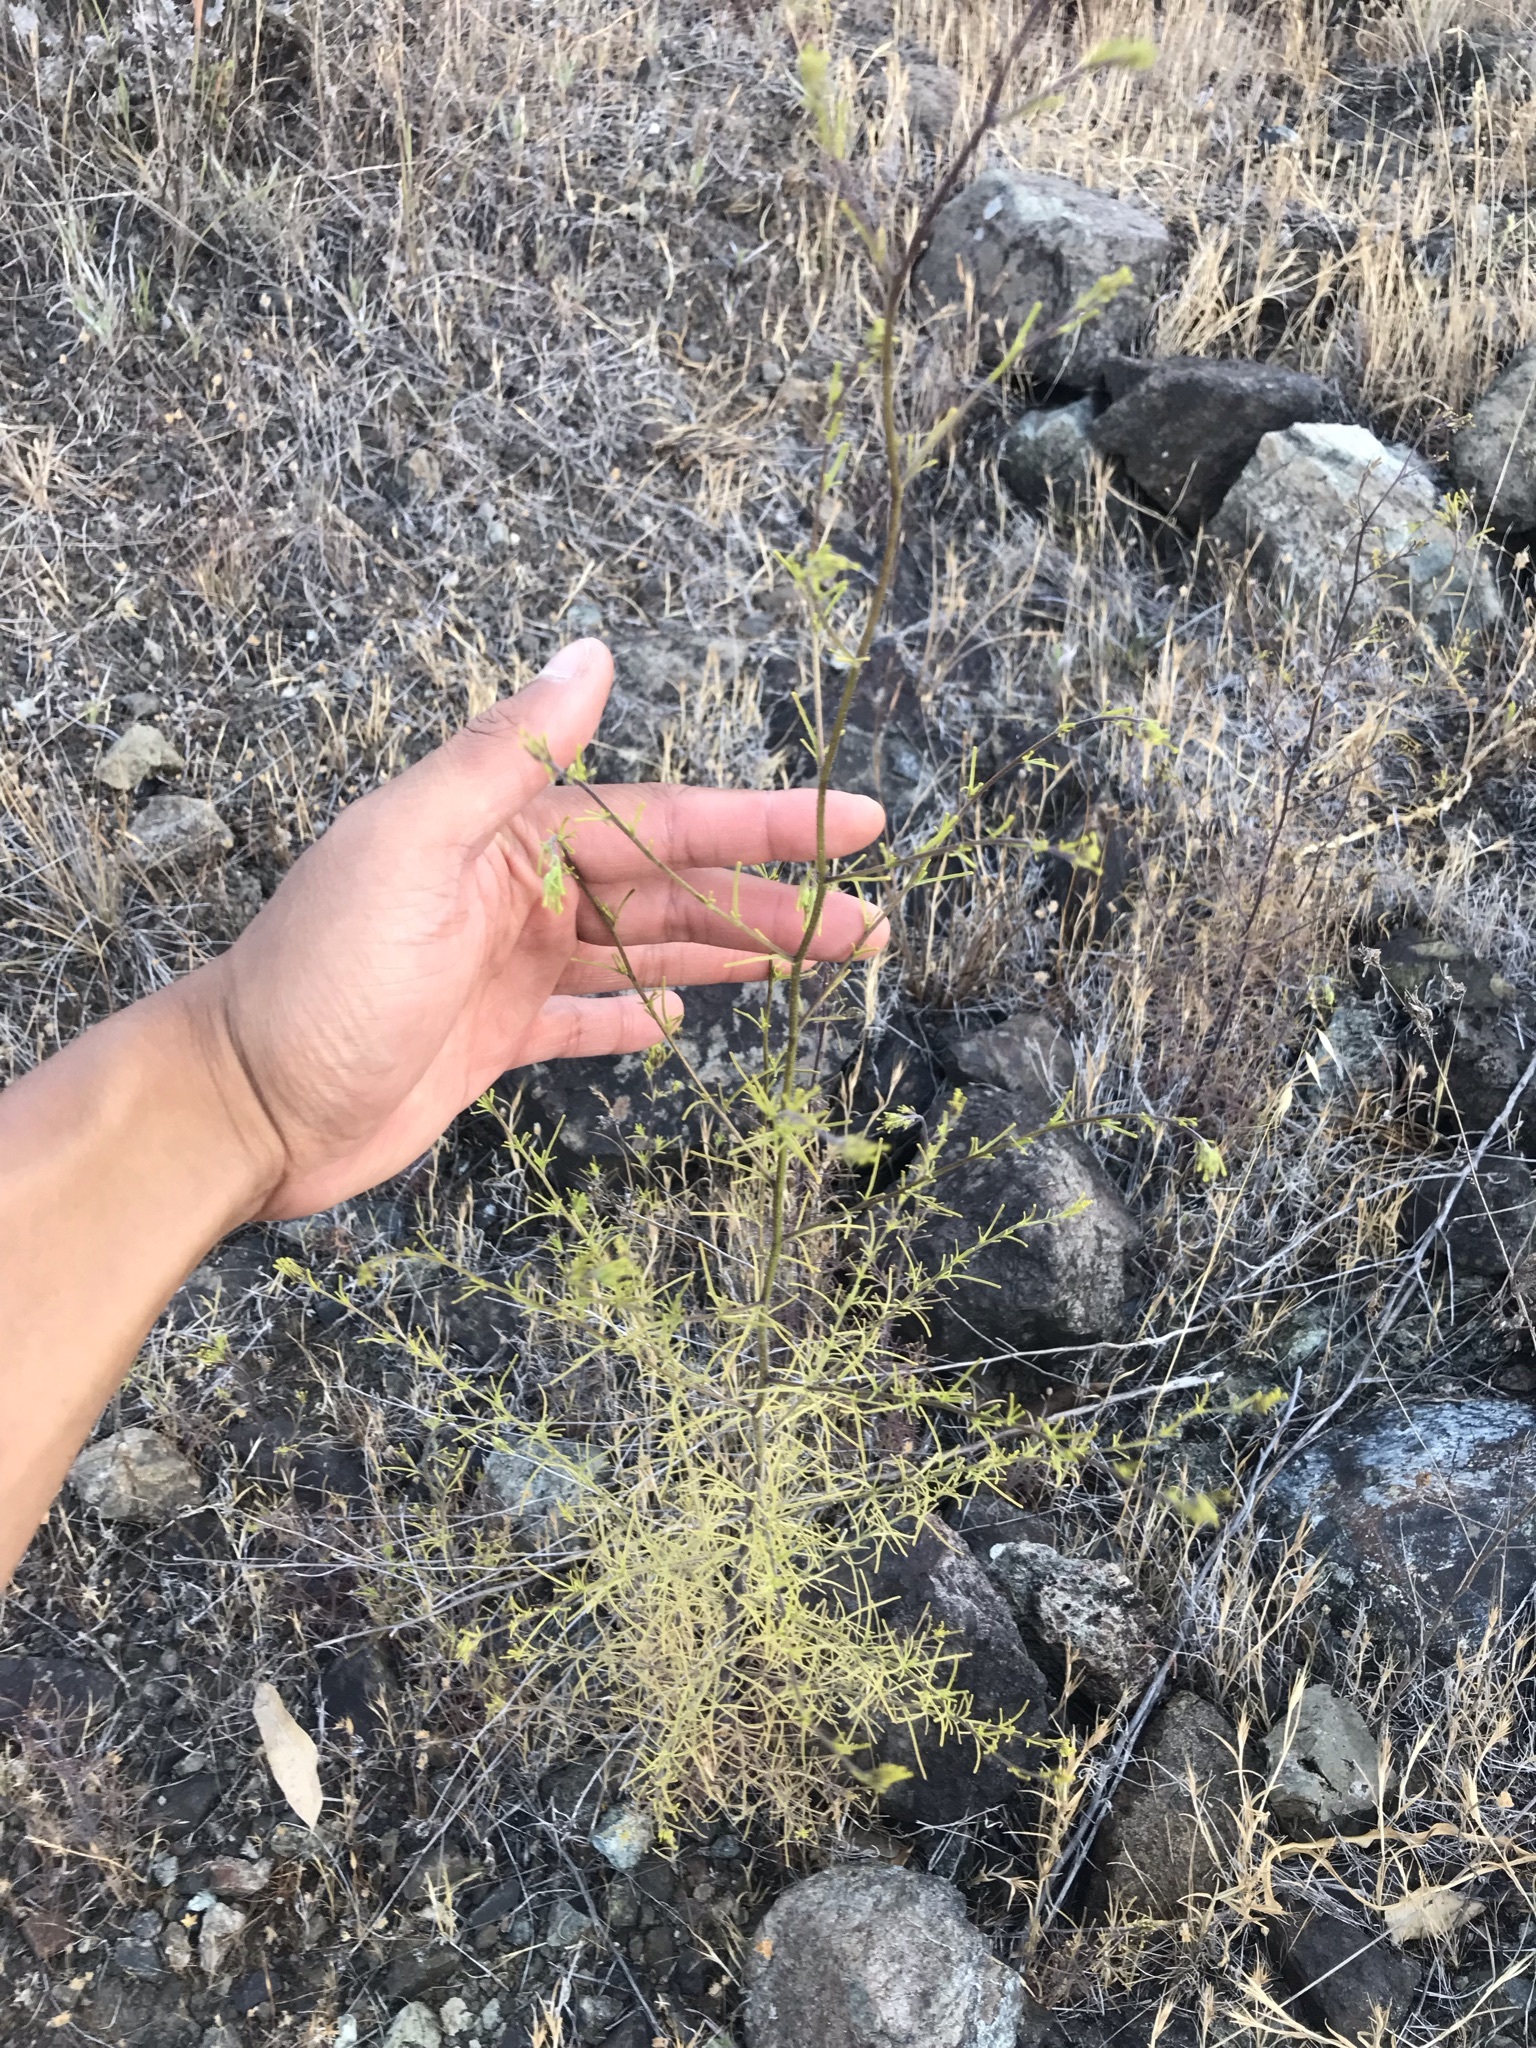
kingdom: Plantae
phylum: Tracheophyta
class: Magnoliopsida
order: Lamiales
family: Orobanchaceae
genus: Cordylanthus
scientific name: Cordylanthus pilosus
